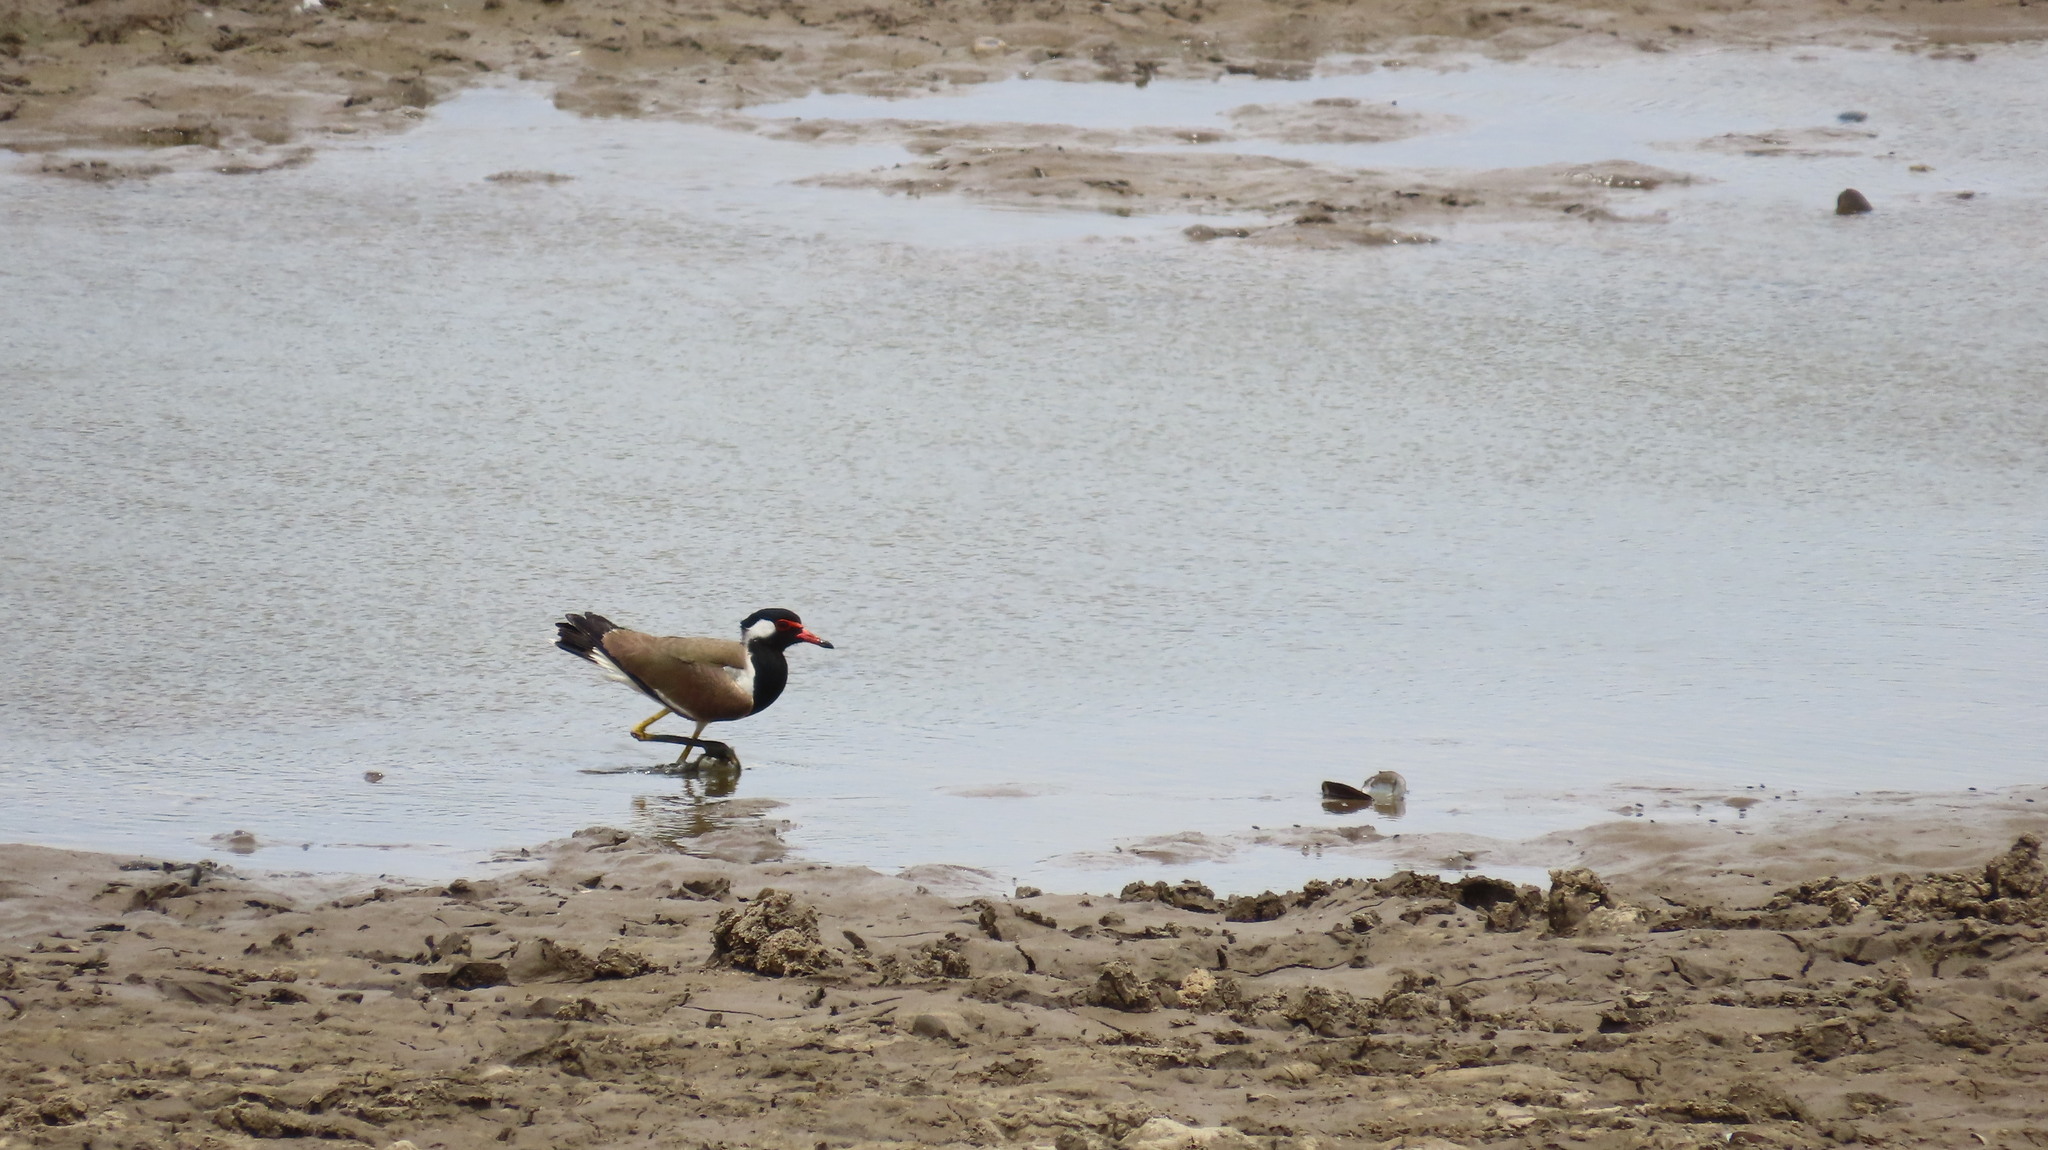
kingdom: Animalia
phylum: Chordata
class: Aves
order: Charadriiformes
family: Charadriidae
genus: Vanellus
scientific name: Vanellus indicus
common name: Red-wattled lapwing
